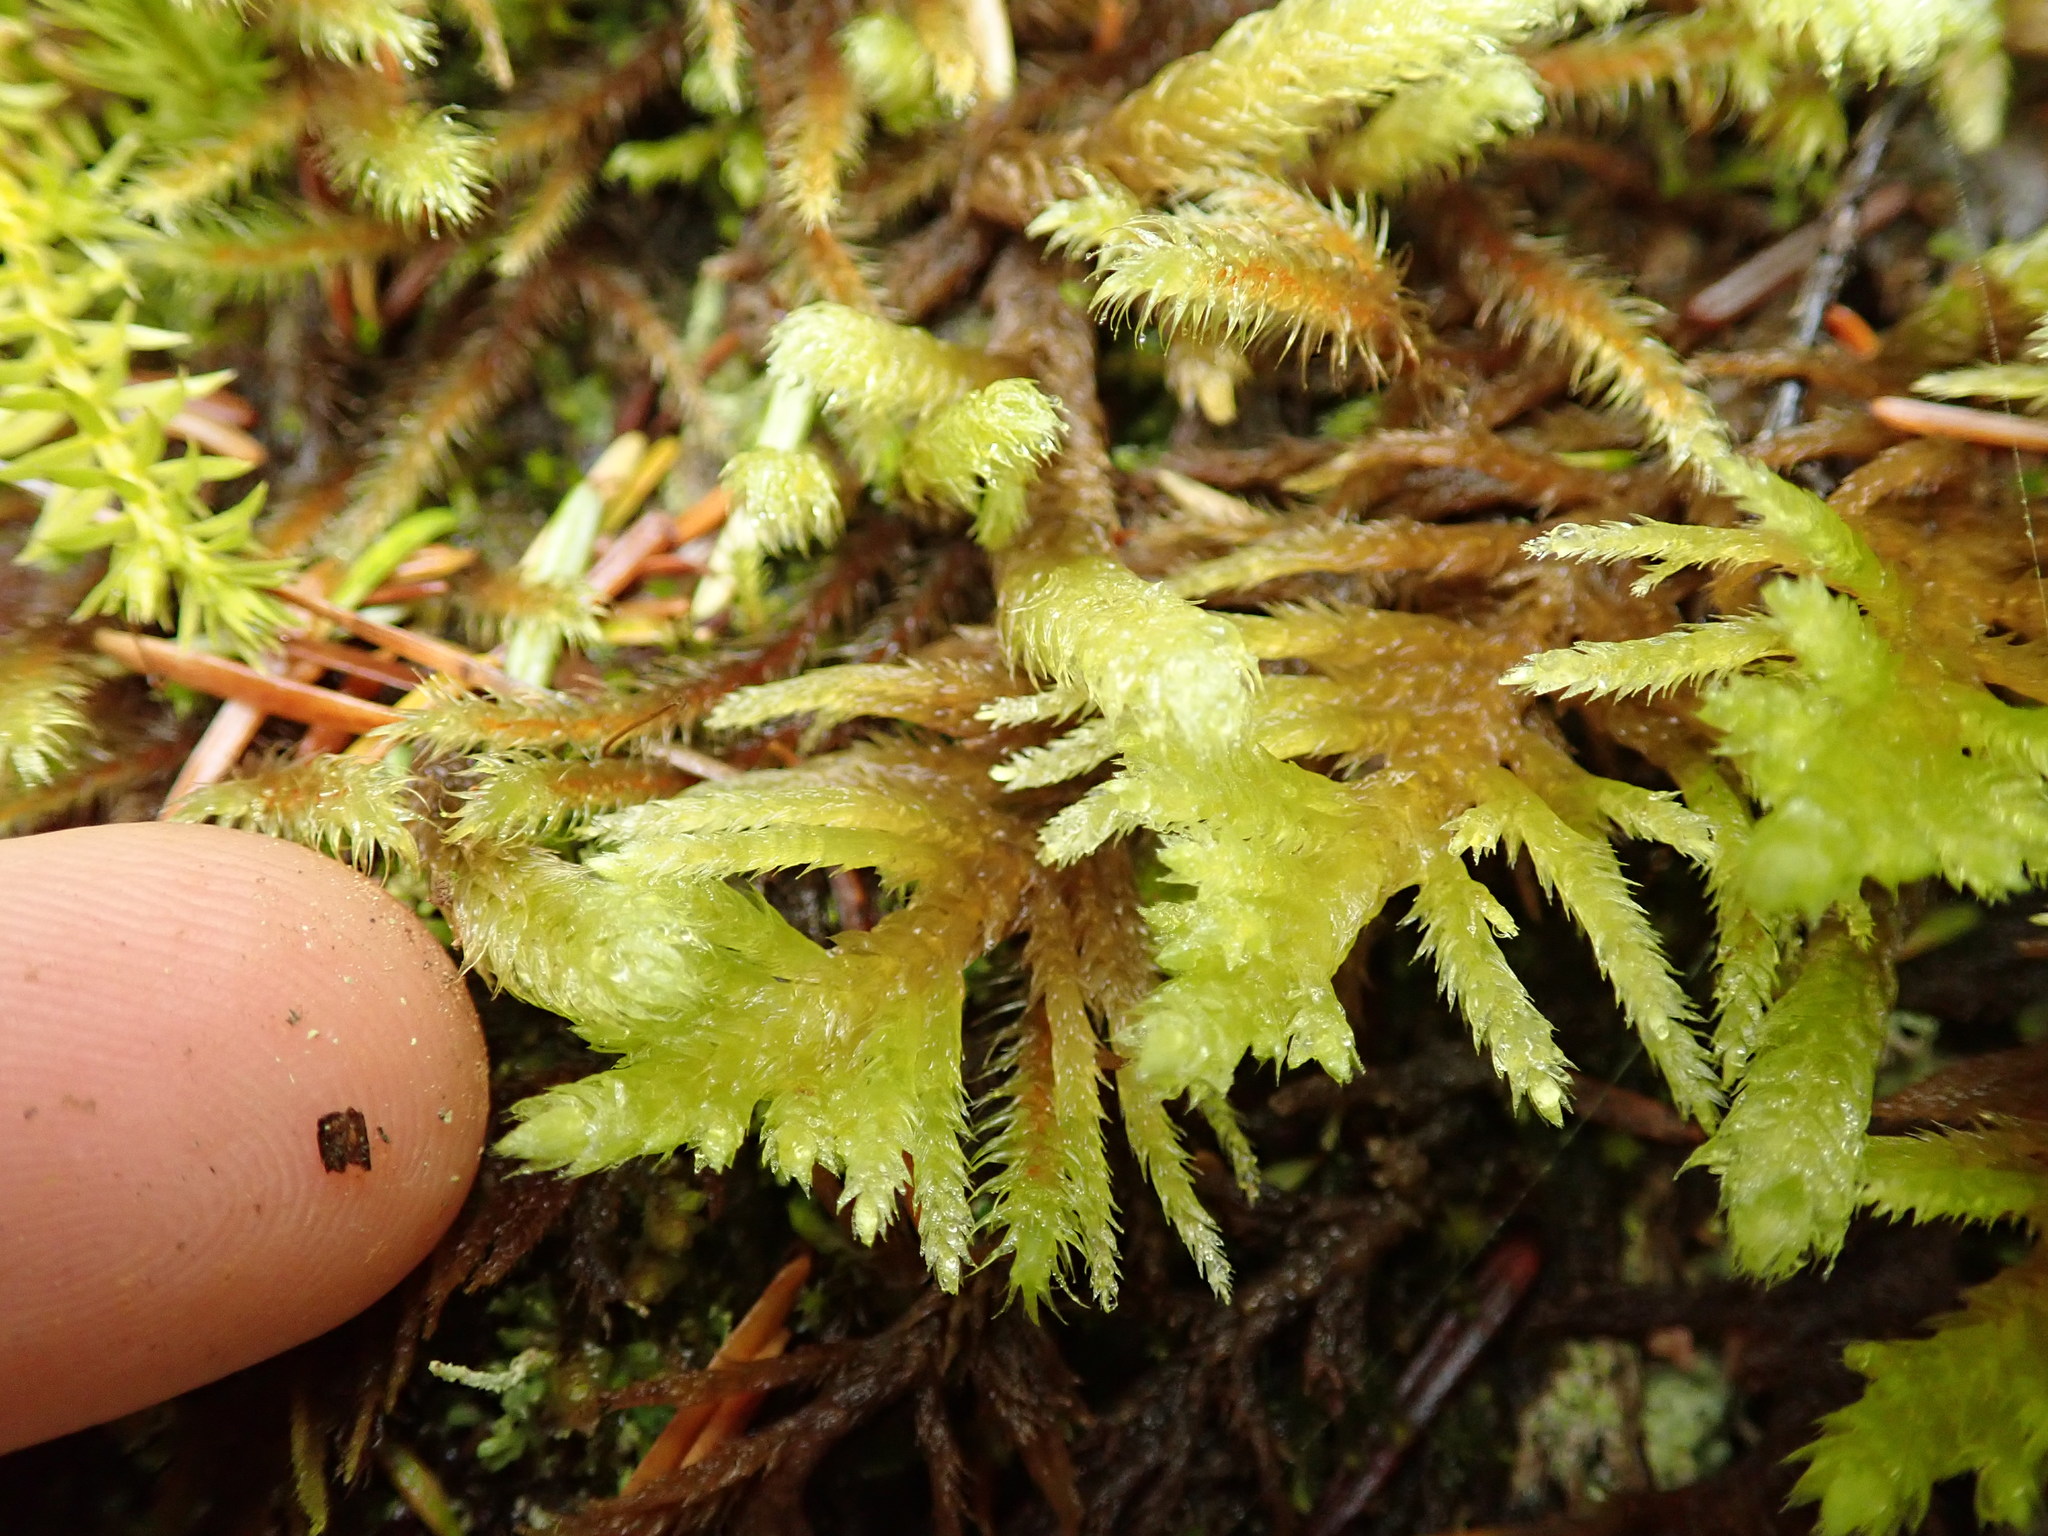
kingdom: Plantae
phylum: Bryophyta
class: Bryopsida
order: Hypnales
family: Brachytheciaceae
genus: Homalothecium
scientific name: Homalothecium megaptilum
